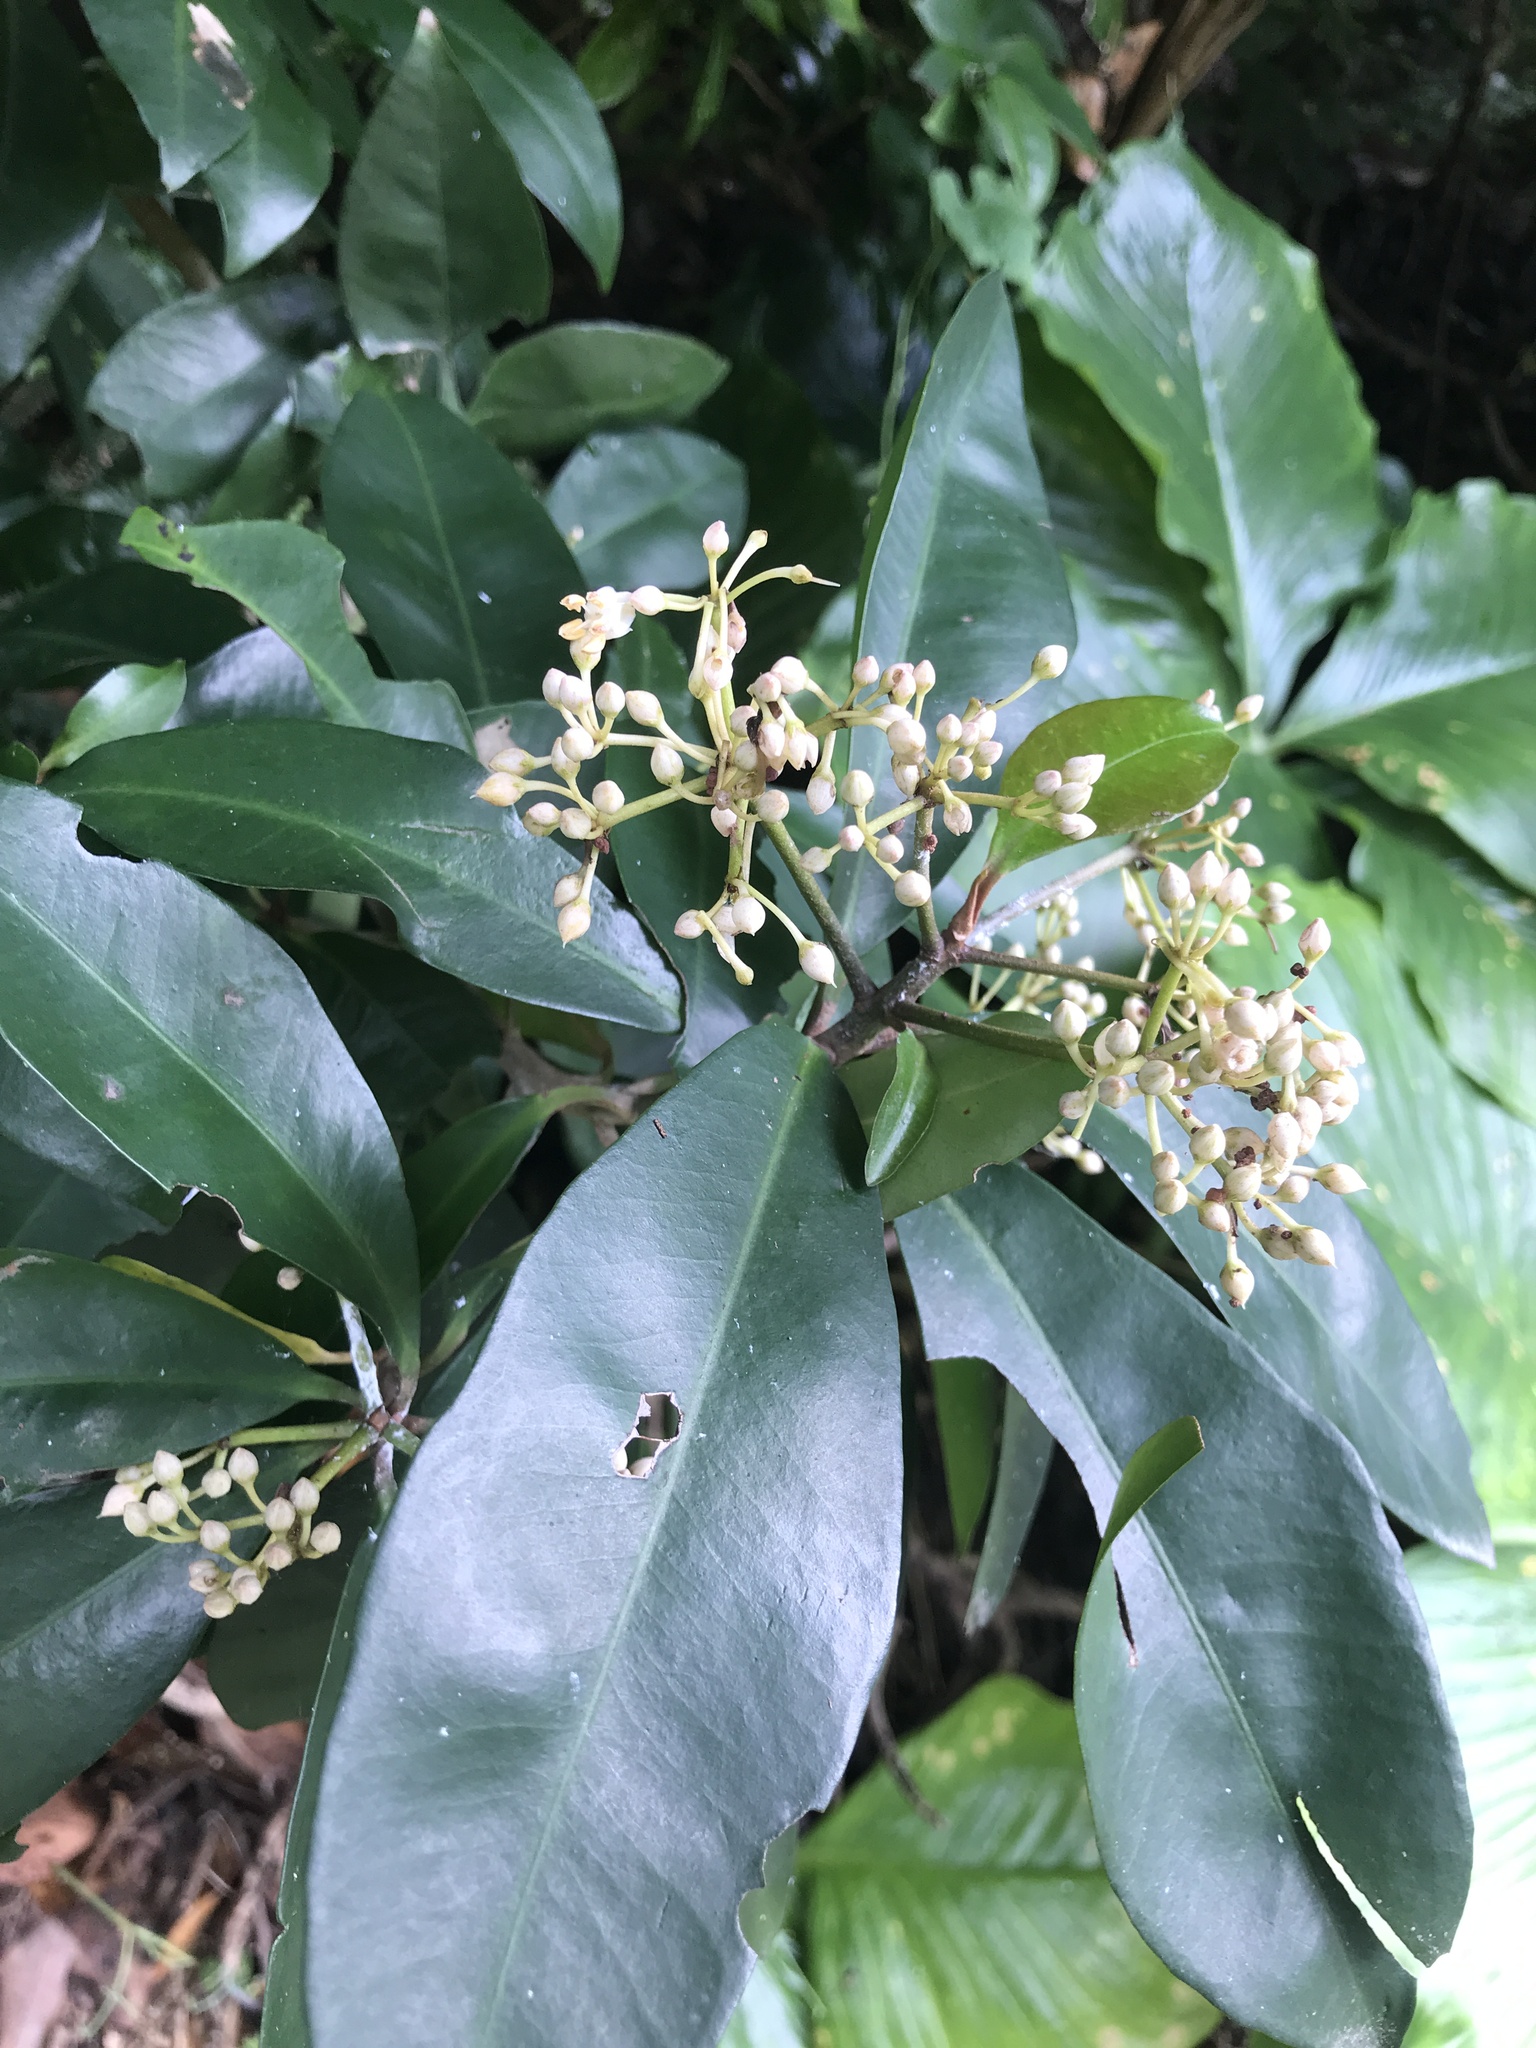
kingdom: Plantae
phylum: Tracheophyta
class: Magnoliopsida
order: Ericales
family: Primulaceae
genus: Ardisia
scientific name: Ardisia sieboldii
